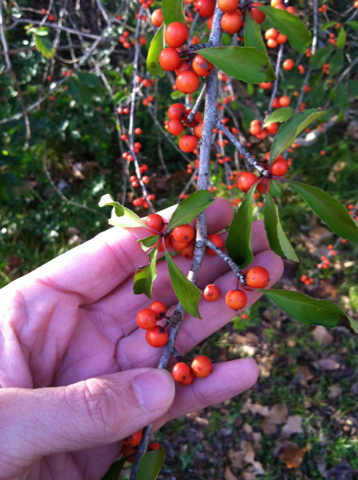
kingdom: Plantae
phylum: Tracheophyta
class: Magnoliopsida
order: Aquifoliales
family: Aquifoliaceae
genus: Ilex
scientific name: Ilex decidua
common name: Possum-haw
